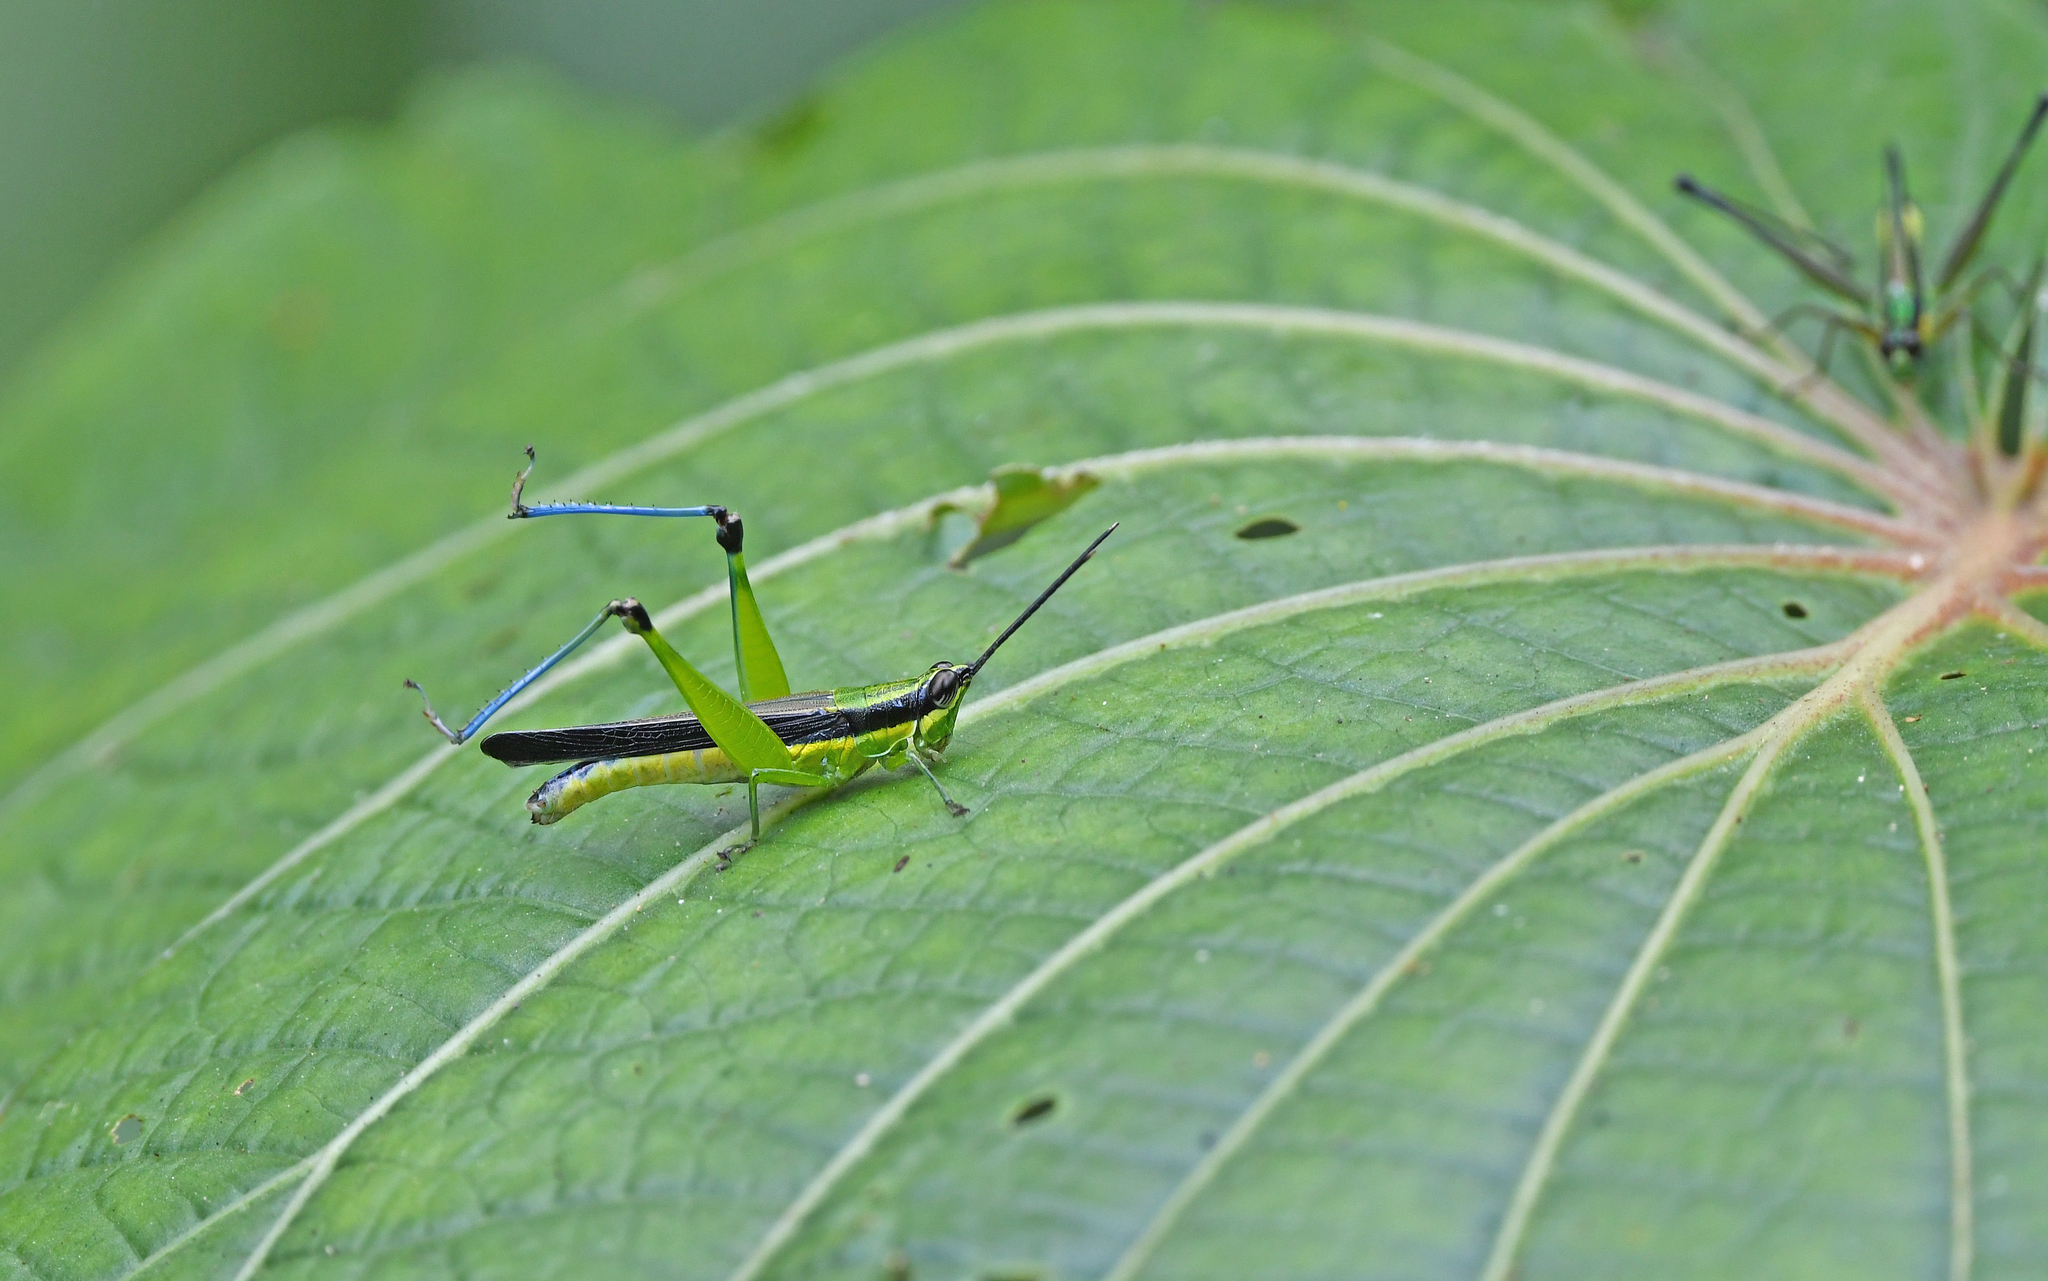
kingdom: Animalia
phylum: Arthropoda
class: Insecta
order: Orthoptera
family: Acrididae
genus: Stenopola
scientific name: Stenopola boliviana
